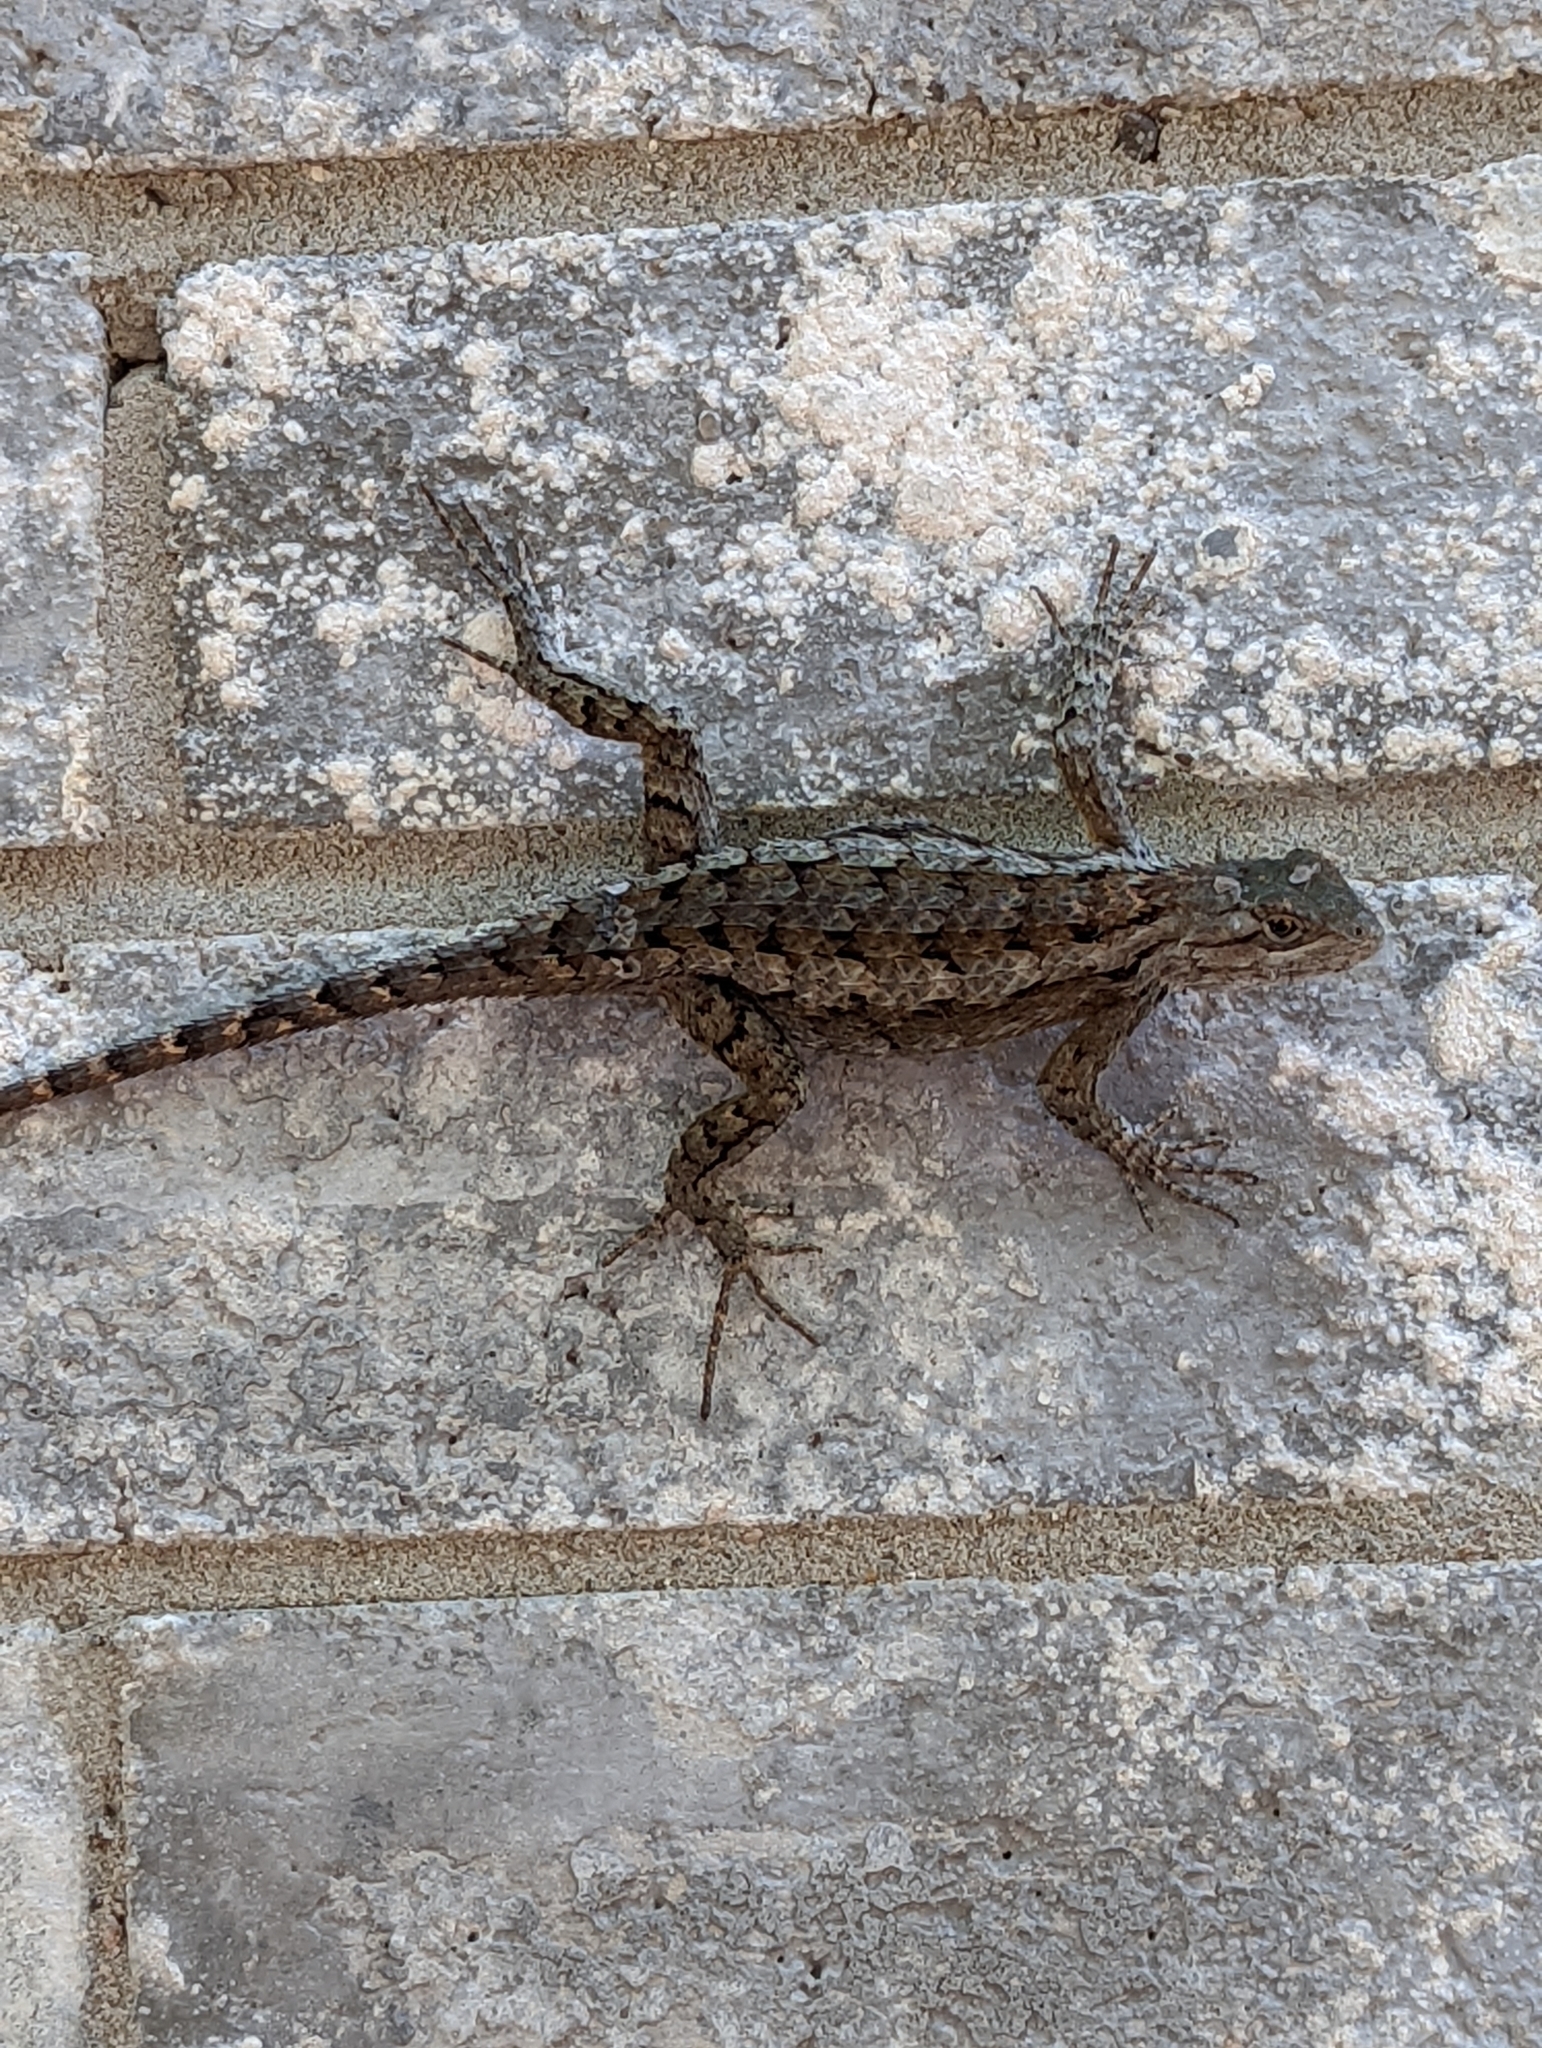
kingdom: Animalia
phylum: Chordata
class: Squamata
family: Phrynosomatidae
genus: Sceloporus
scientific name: Sceloporus olivaceus
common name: Texas spiny lizard
